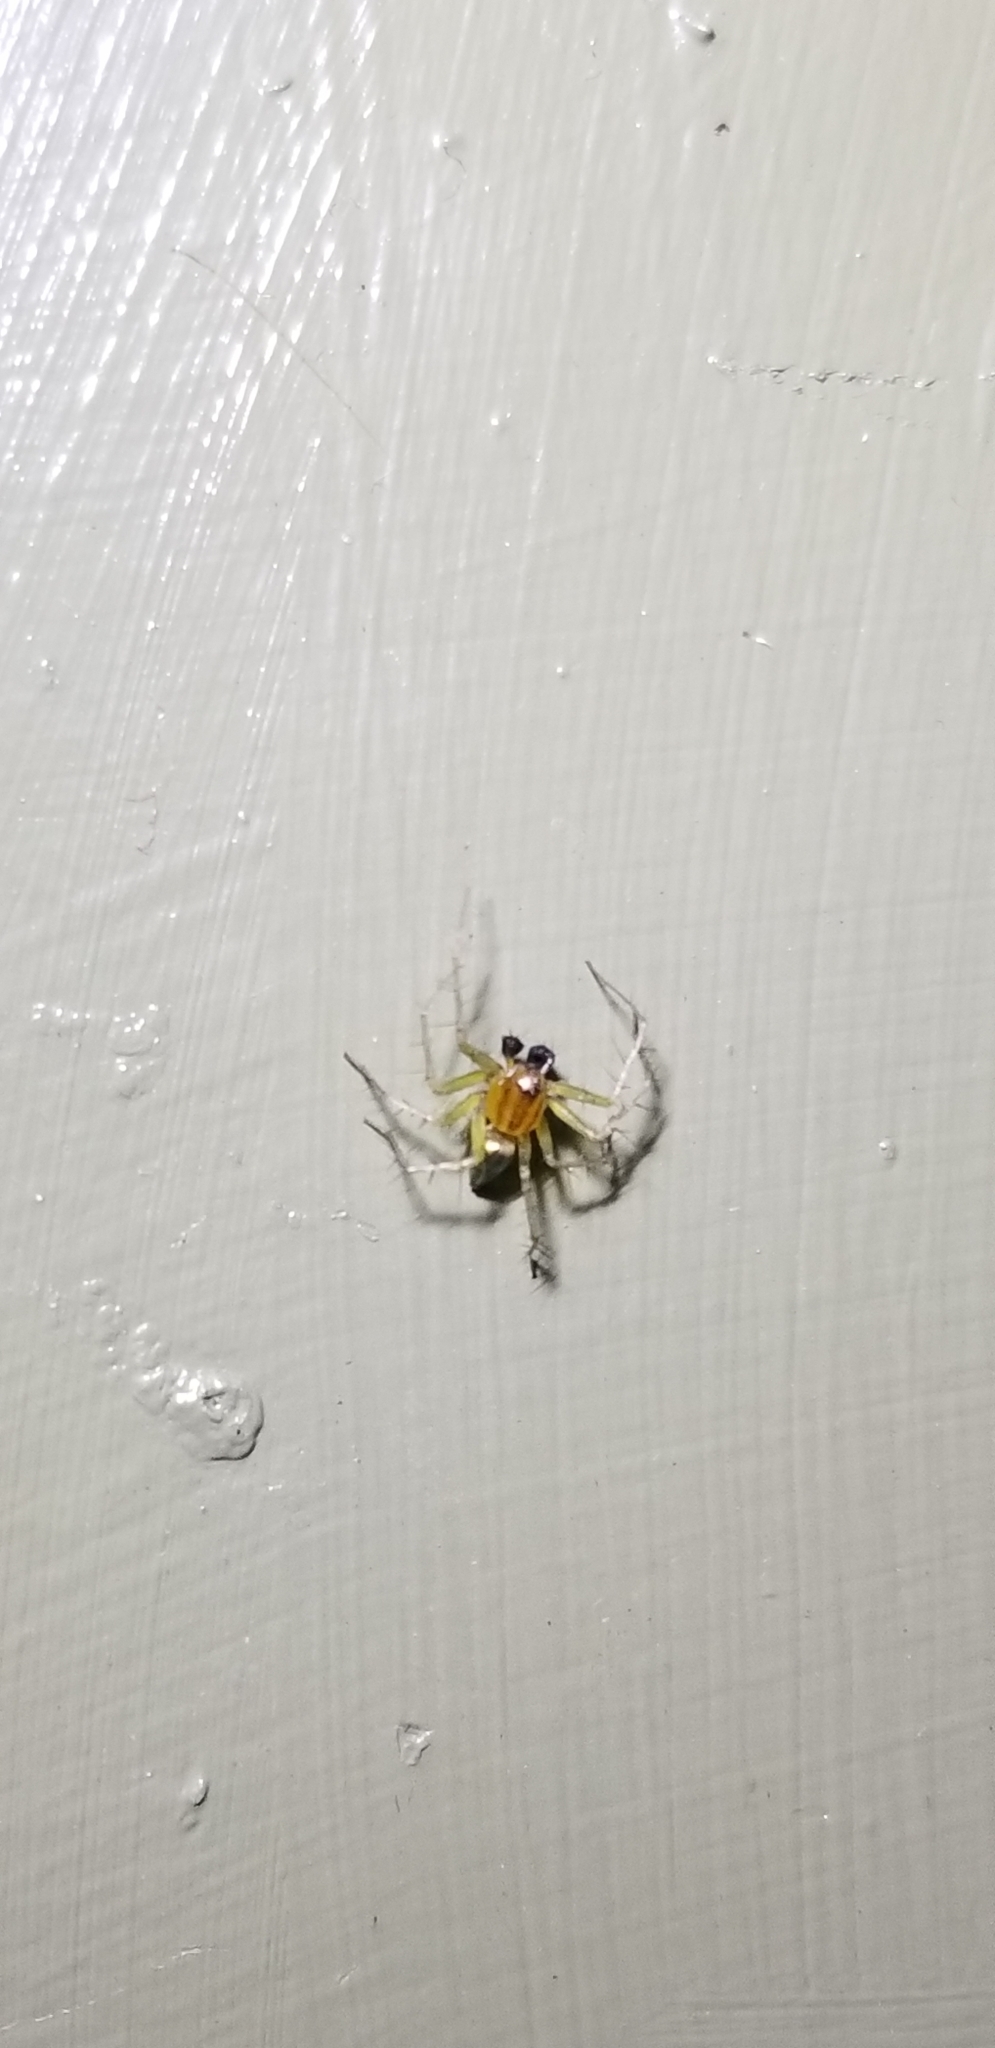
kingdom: Animalia
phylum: Arthropoda
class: Arachnida
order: Araneae
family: Oxyopidae
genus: Oxyopes
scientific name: Oxyopes salticus
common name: Lynx spiders
